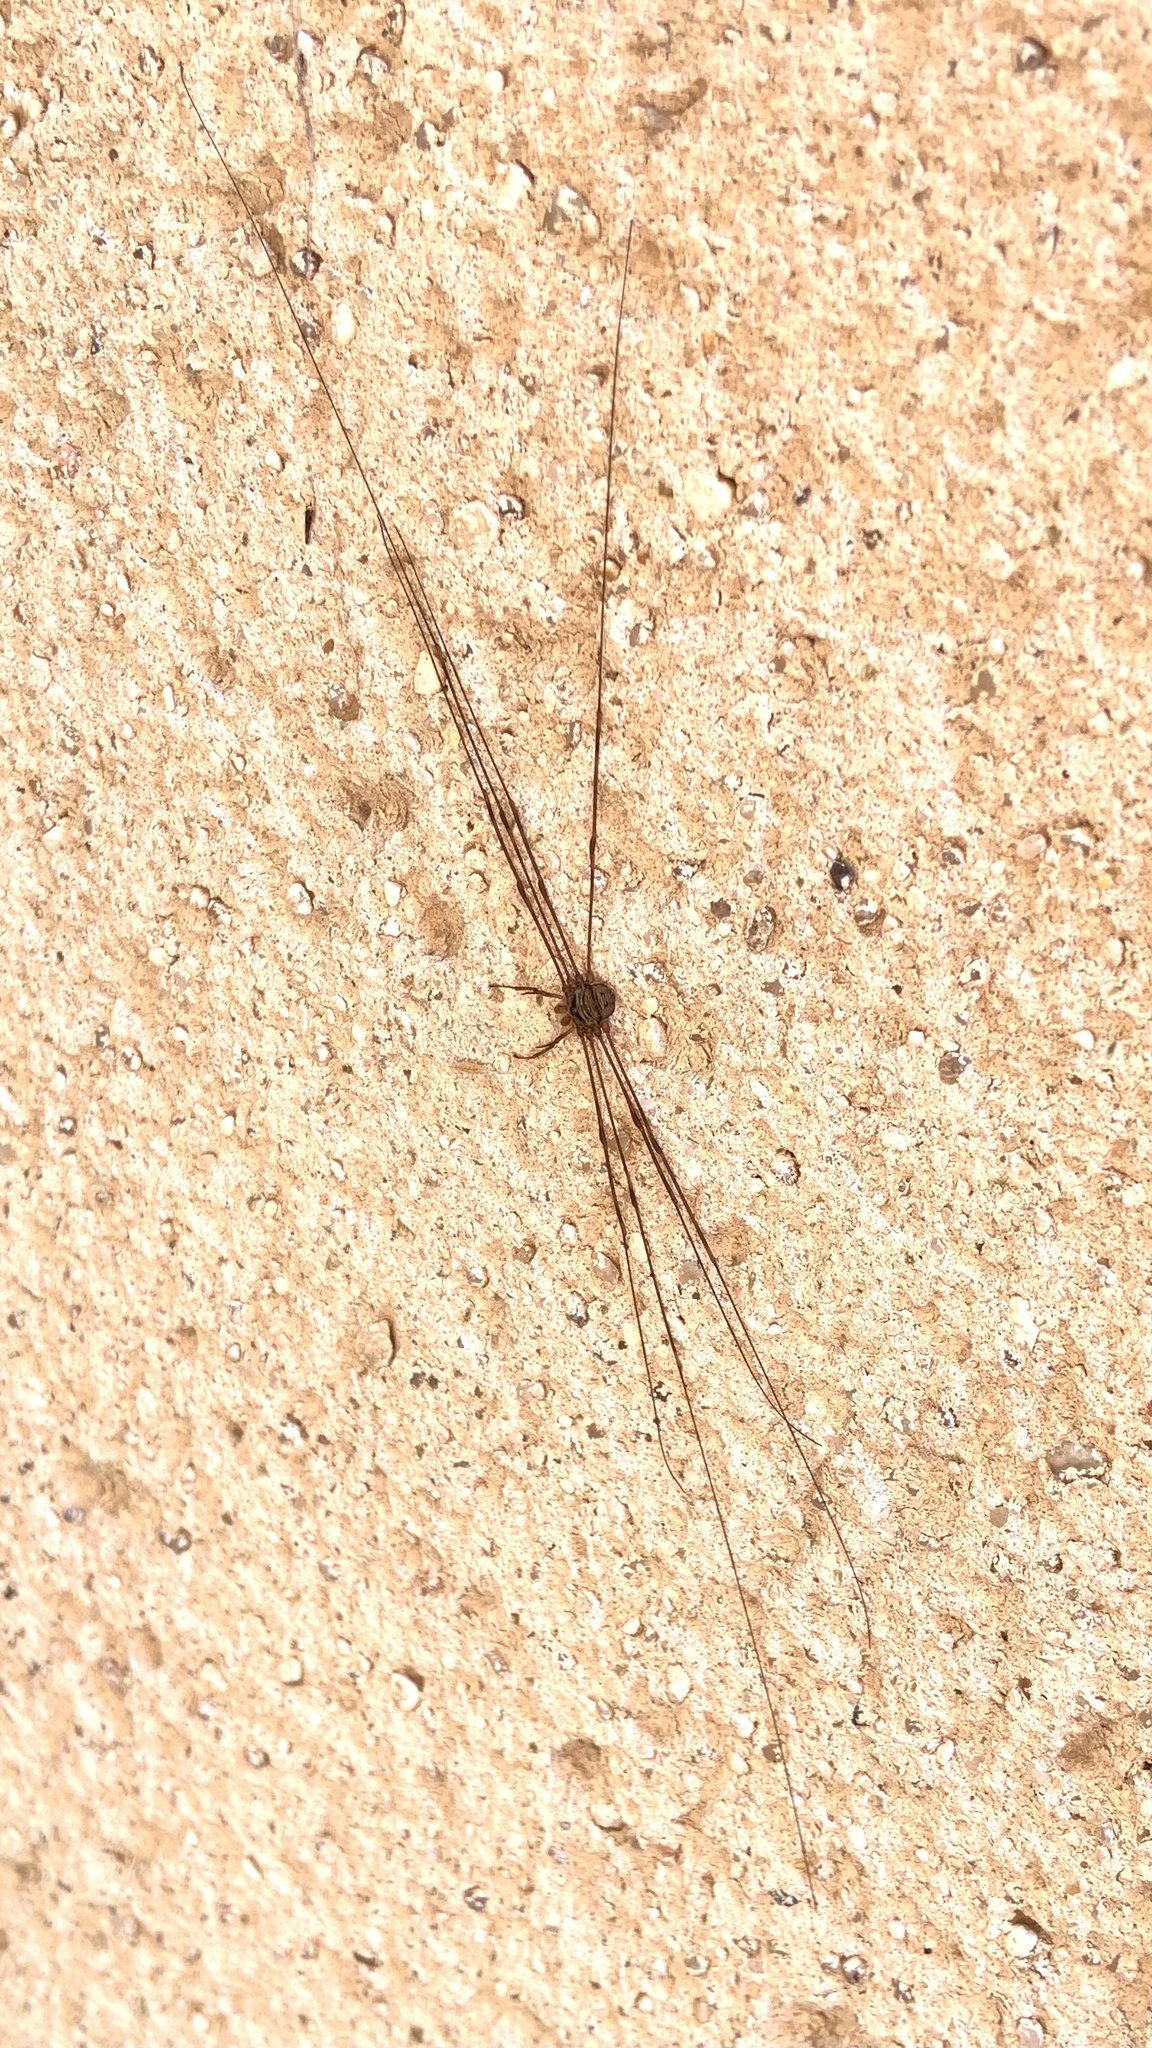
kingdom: Animalia
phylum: Arthropoda
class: Arachnida
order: Opiliones
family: Phalangiidae
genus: Dicranopalpus
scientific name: Dicranopalpus ramosus
